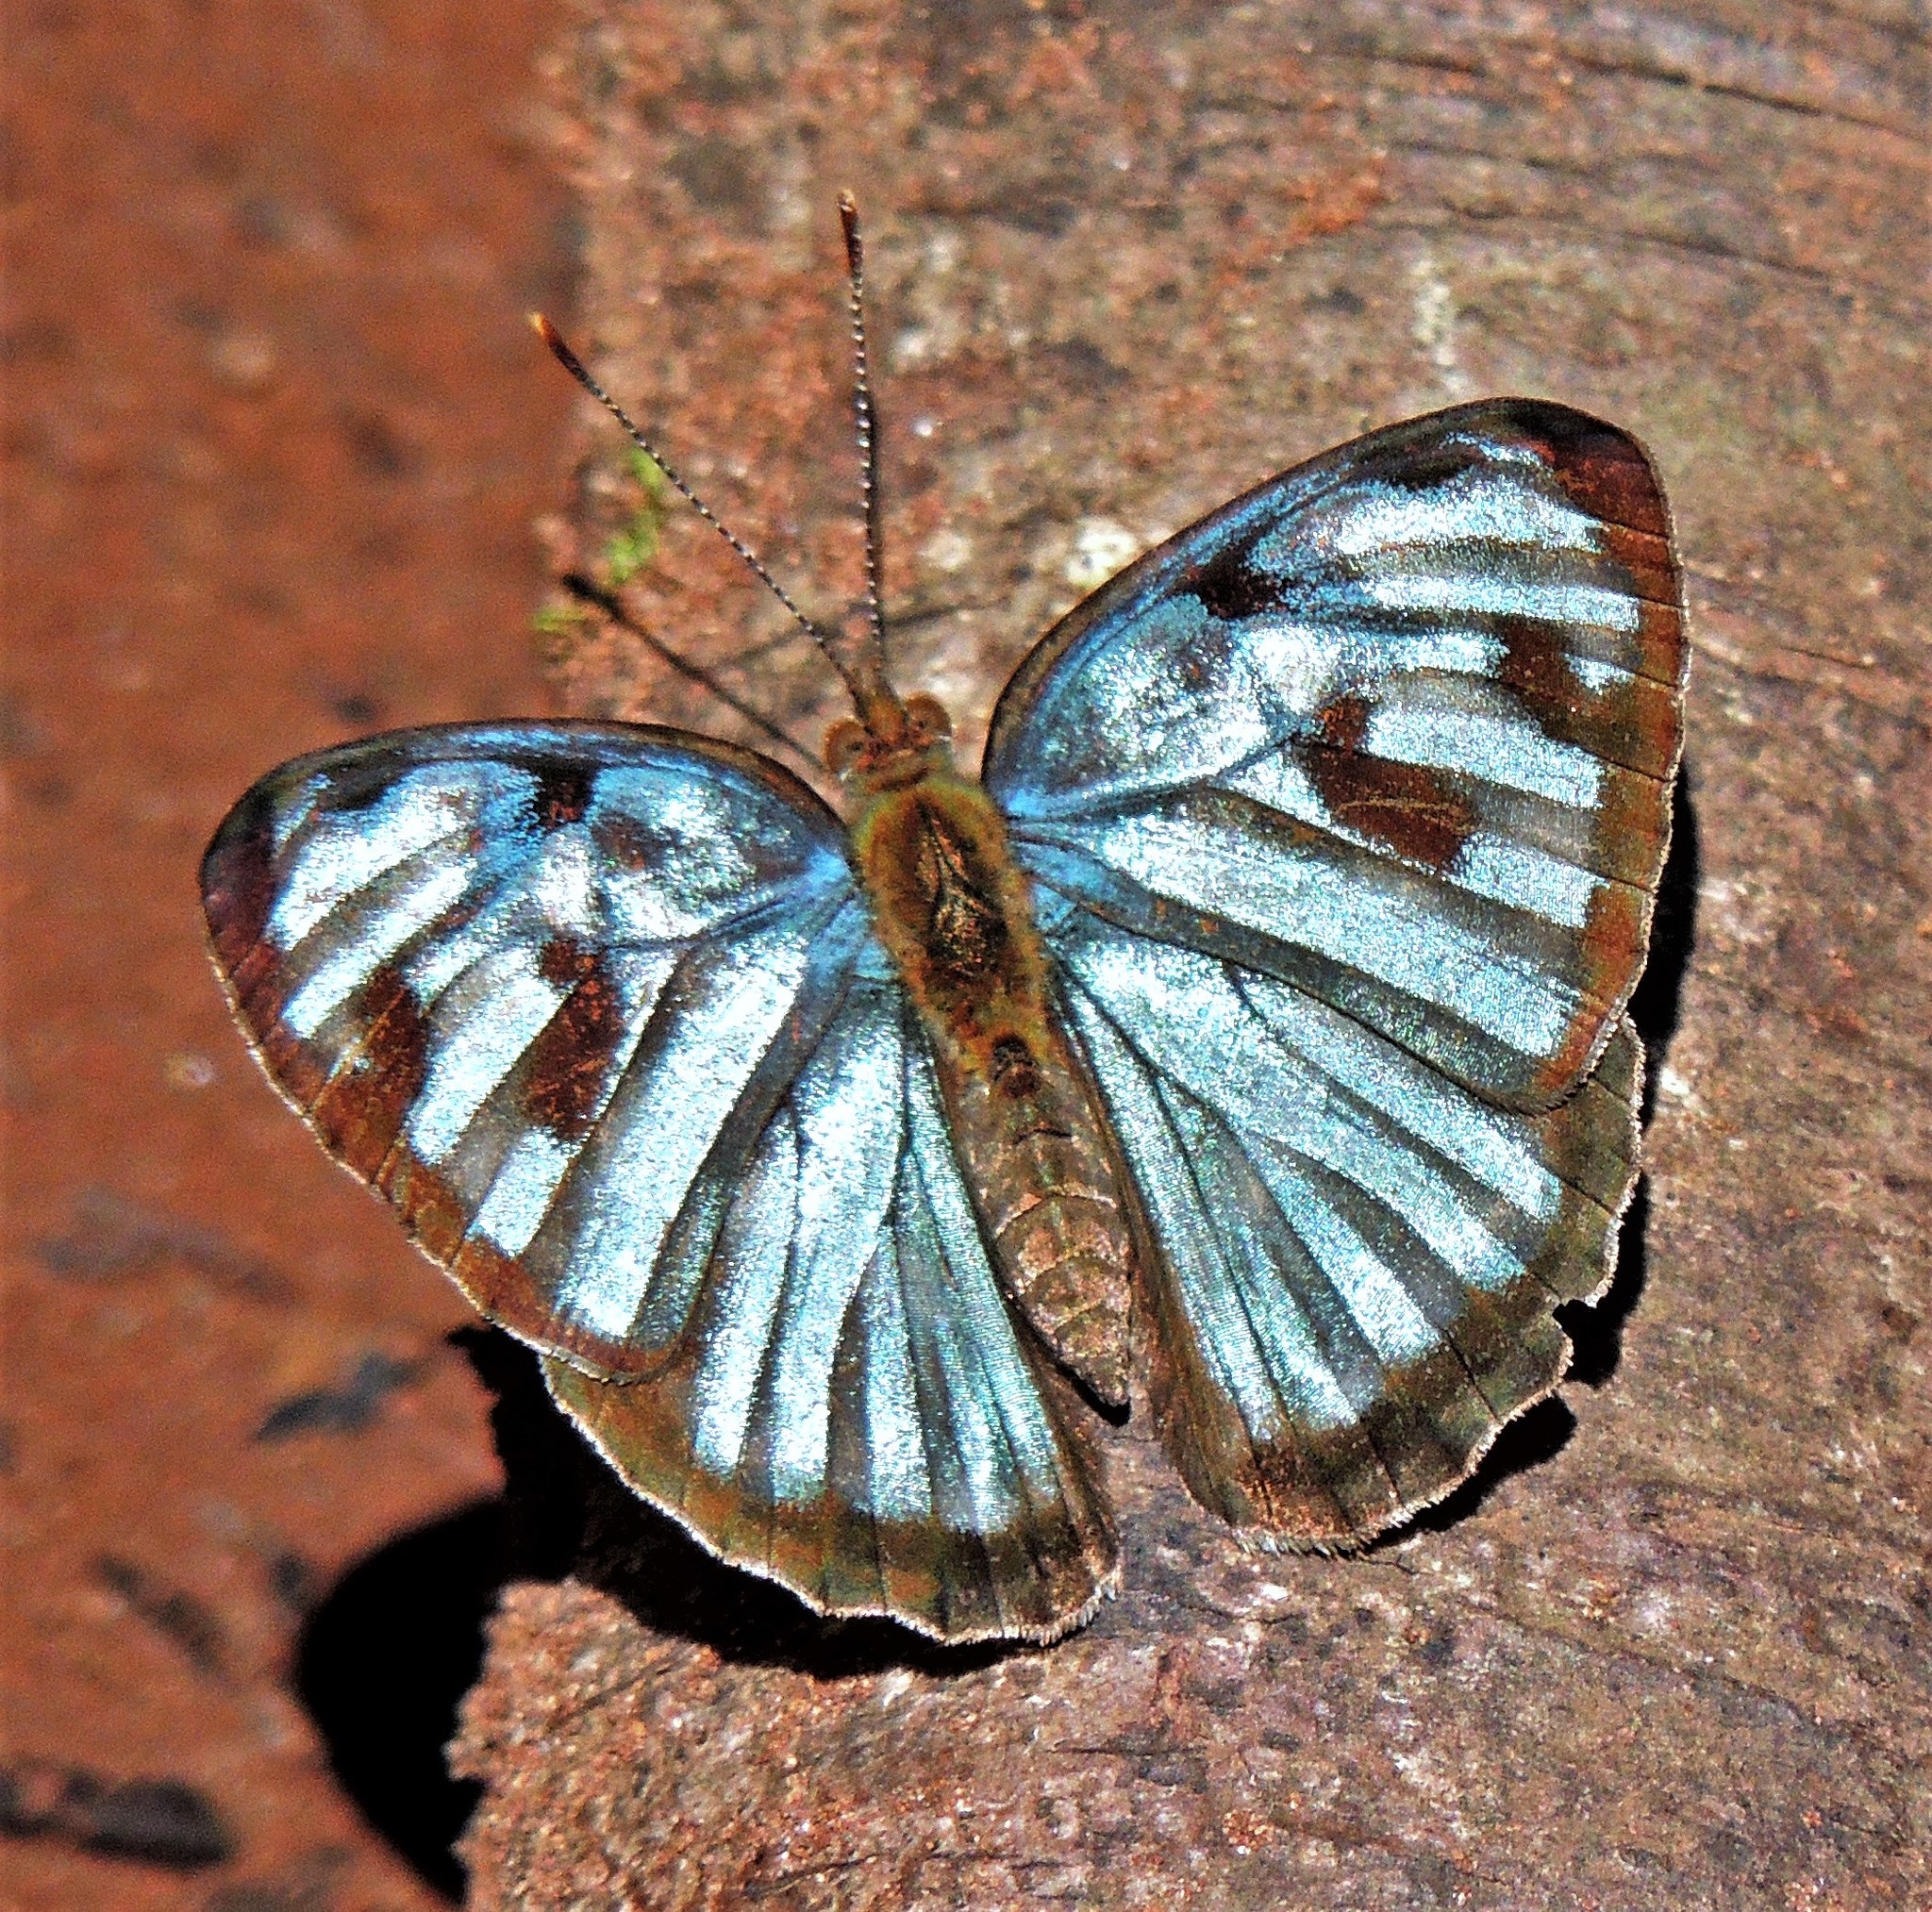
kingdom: Animalia
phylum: Arthropoda
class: Insecta
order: Lepidoptera
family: Nymphalidae
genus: Dynamine
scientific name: Dynamine mylitta
